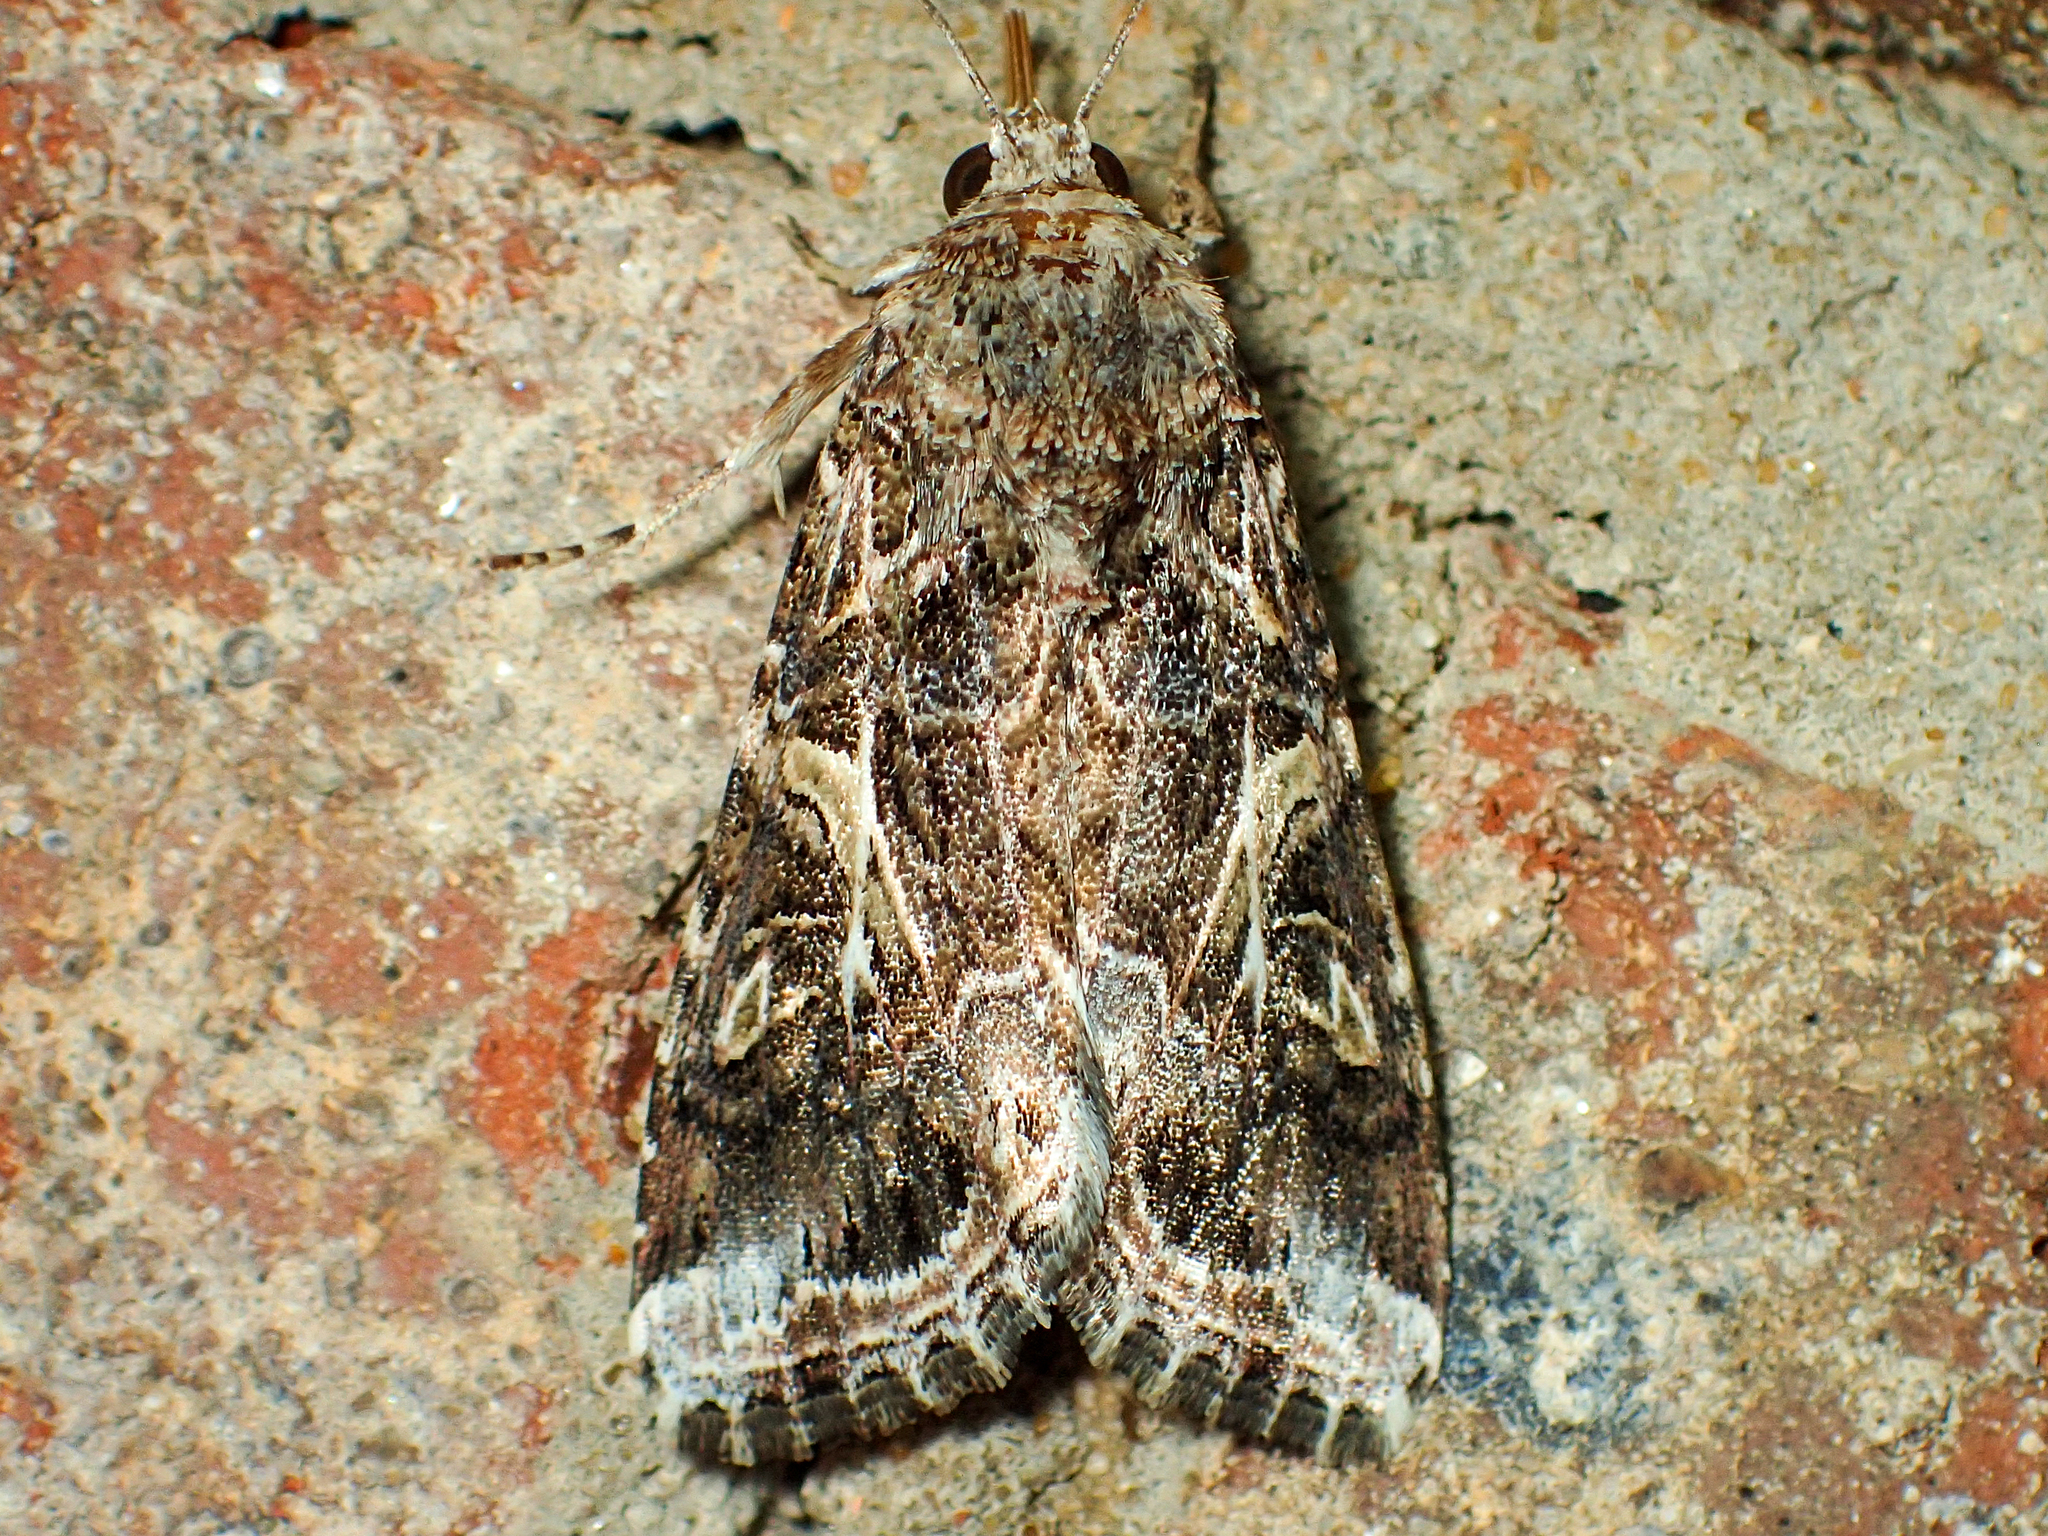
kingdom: Animalia
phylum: Arthropoda
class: Insecta
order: Lepidoptera
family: Noctuidae
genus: Spodoptera
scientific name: Spodoptera ornithogalli
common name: Yellow-striped armyworm
